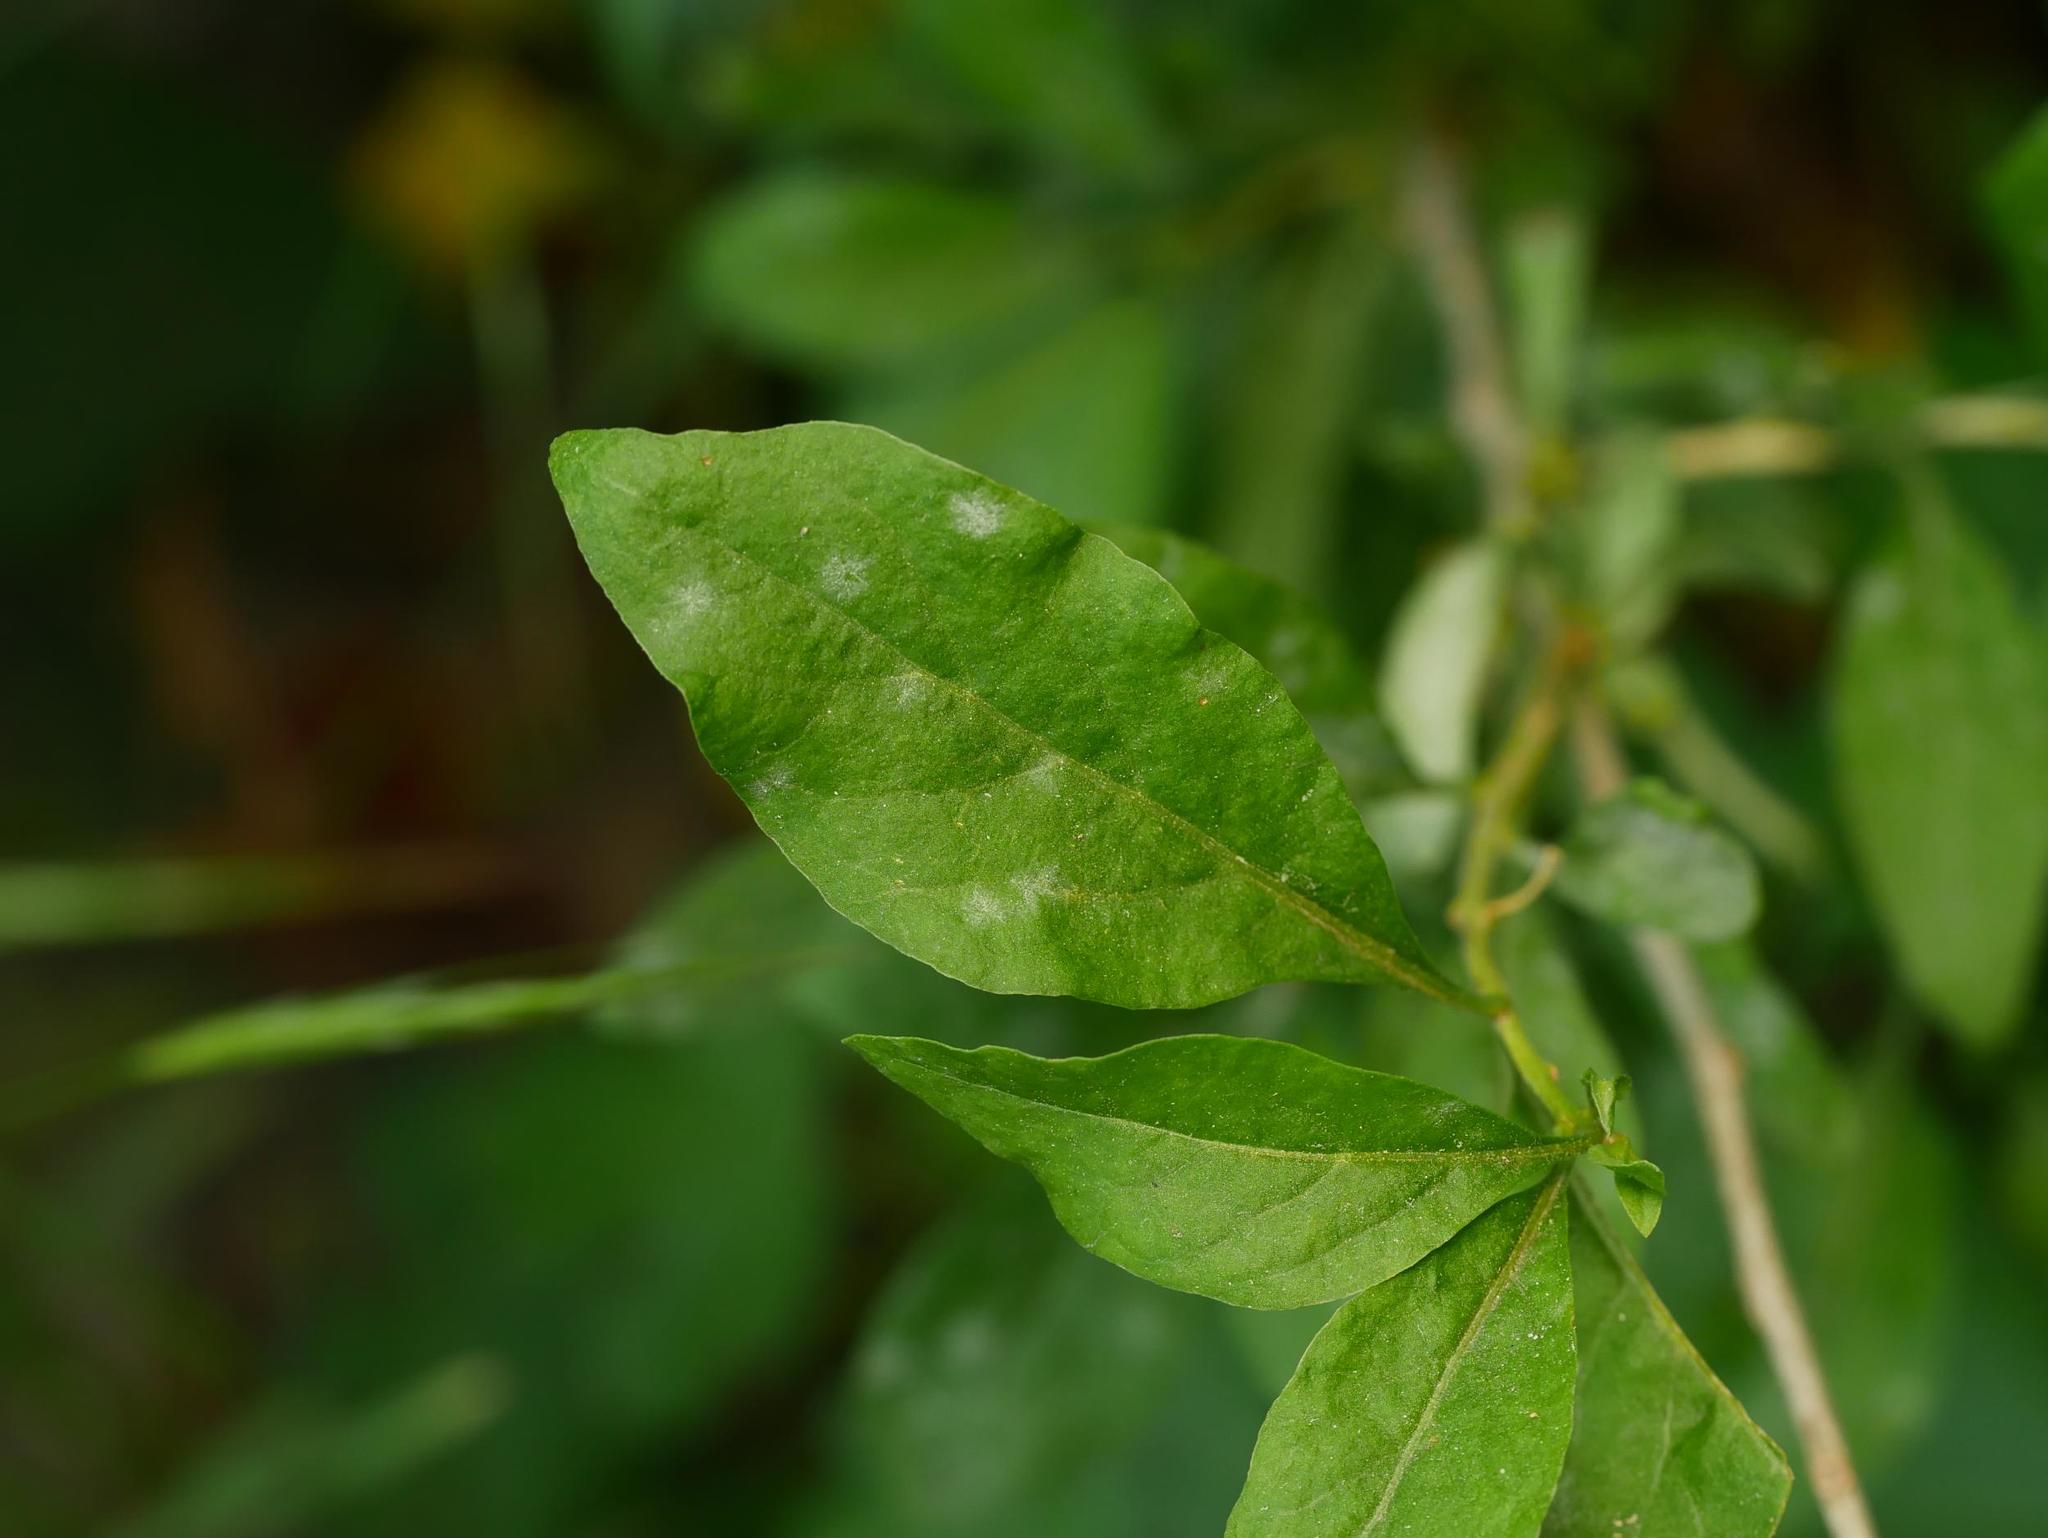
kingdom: Fungi
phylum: Ascomycota
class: Leotiomycetes
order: Helotiales
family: Erysiphaceae
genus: Erysiphe
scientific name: Erysiphe mougeotii
